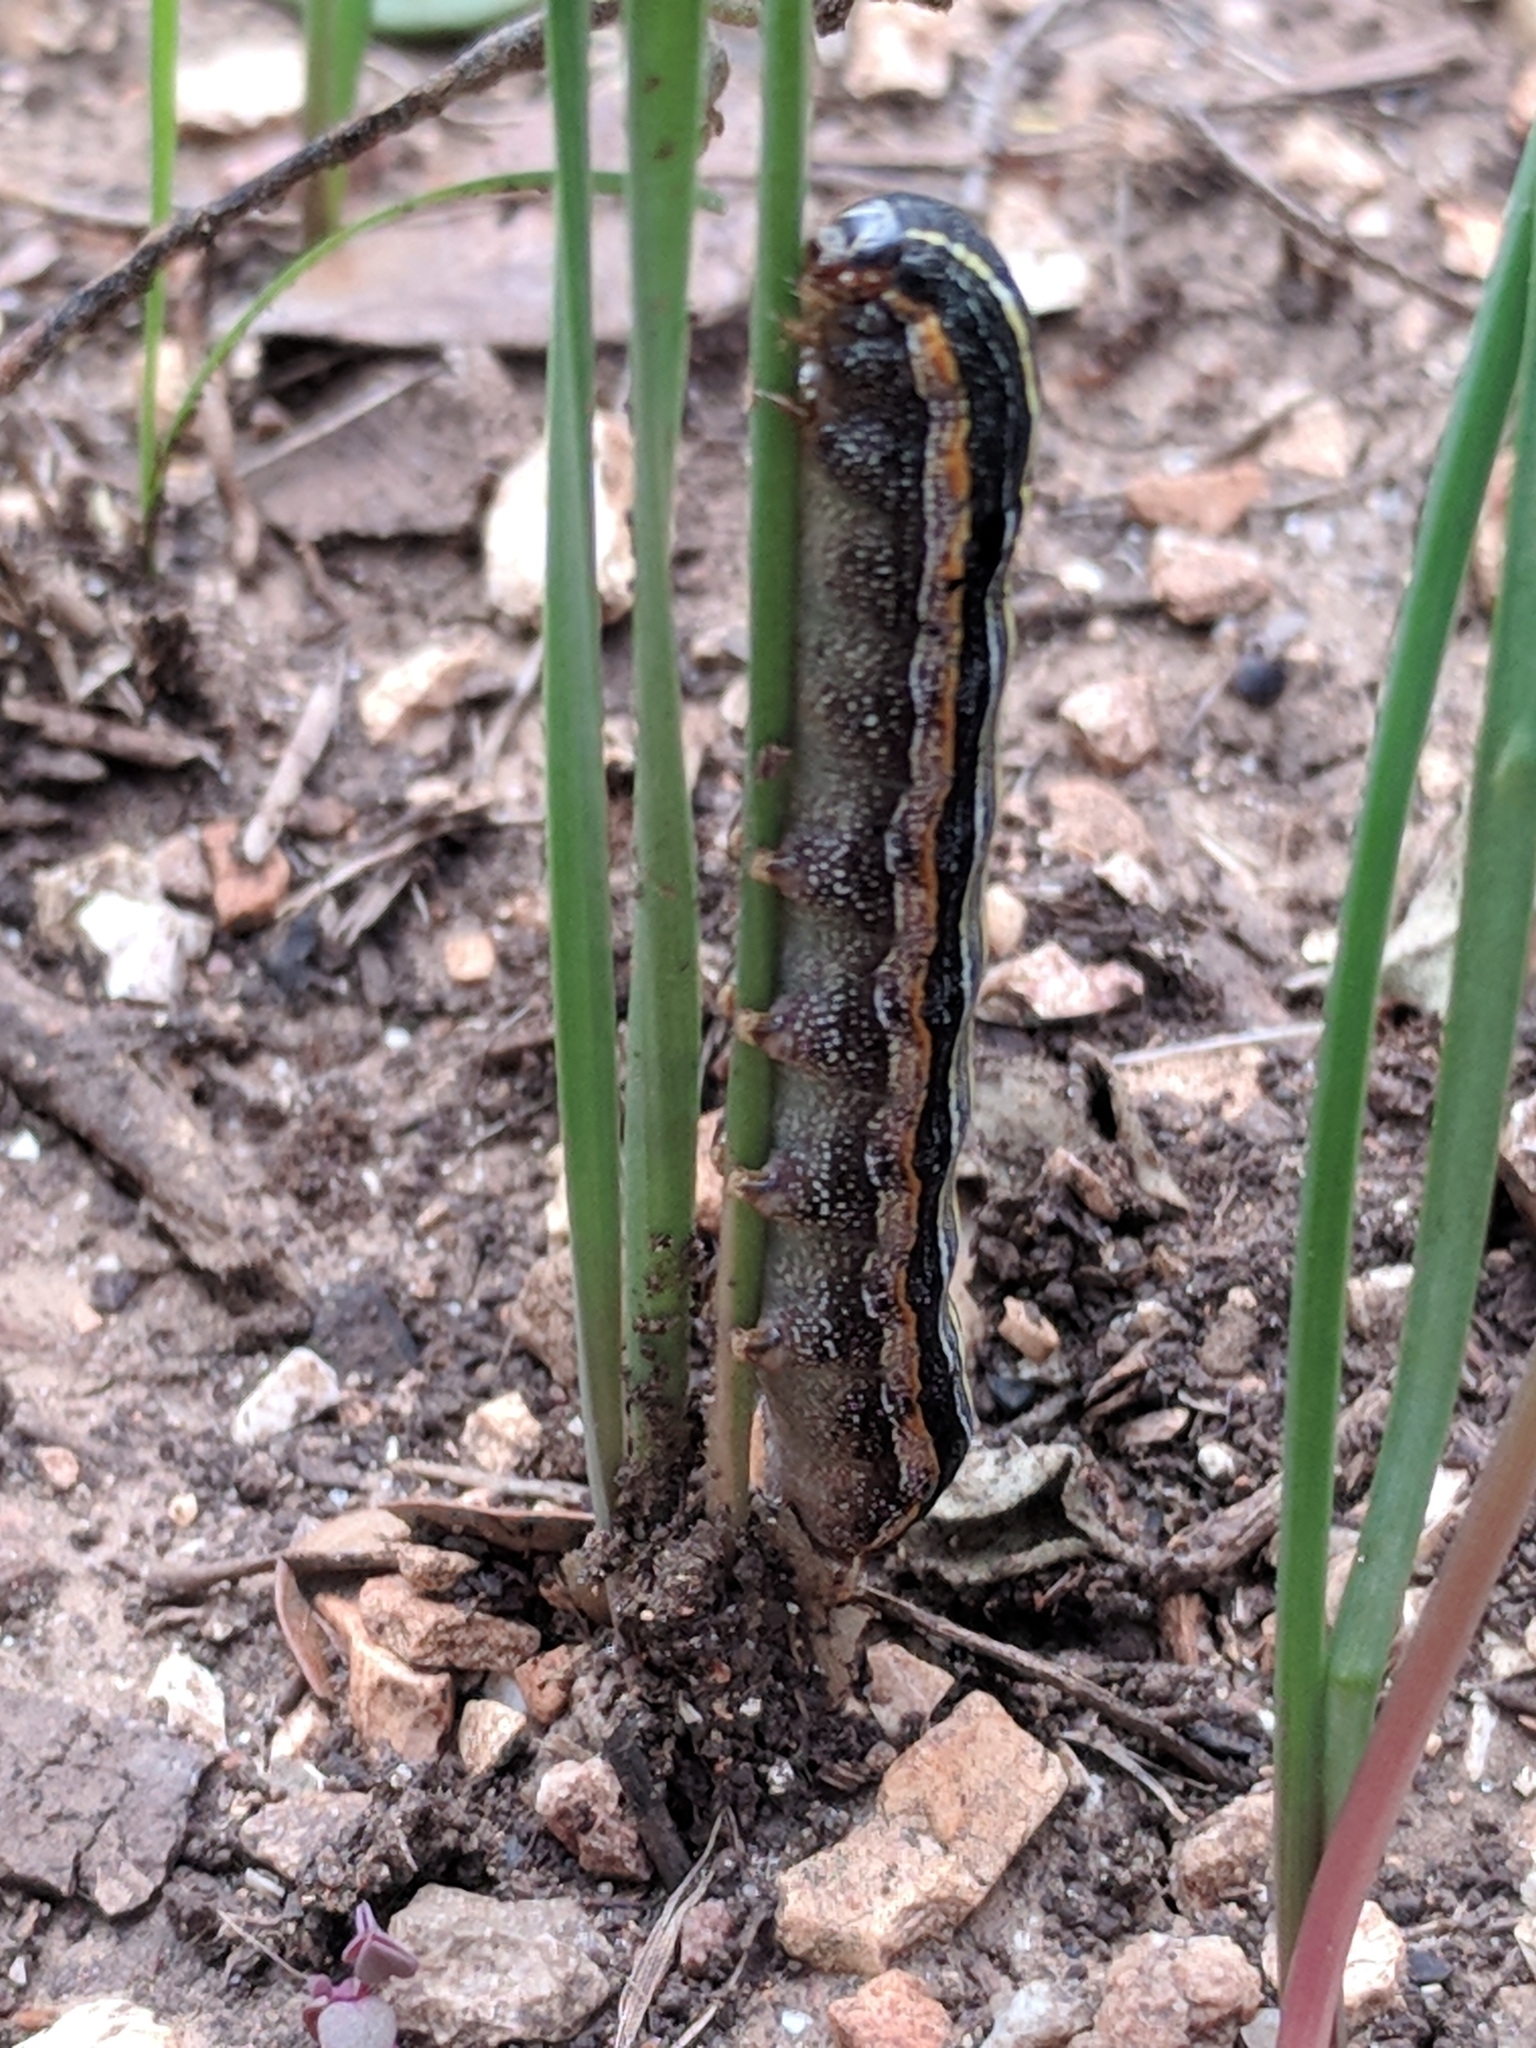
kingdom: Animalia
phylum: Arthropoda
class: Insecta
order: Lepidoptera
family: Noctuidae
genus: Spodoptera
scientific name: Spodoptera ornithogalli
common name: Yellow-striped armyworm
